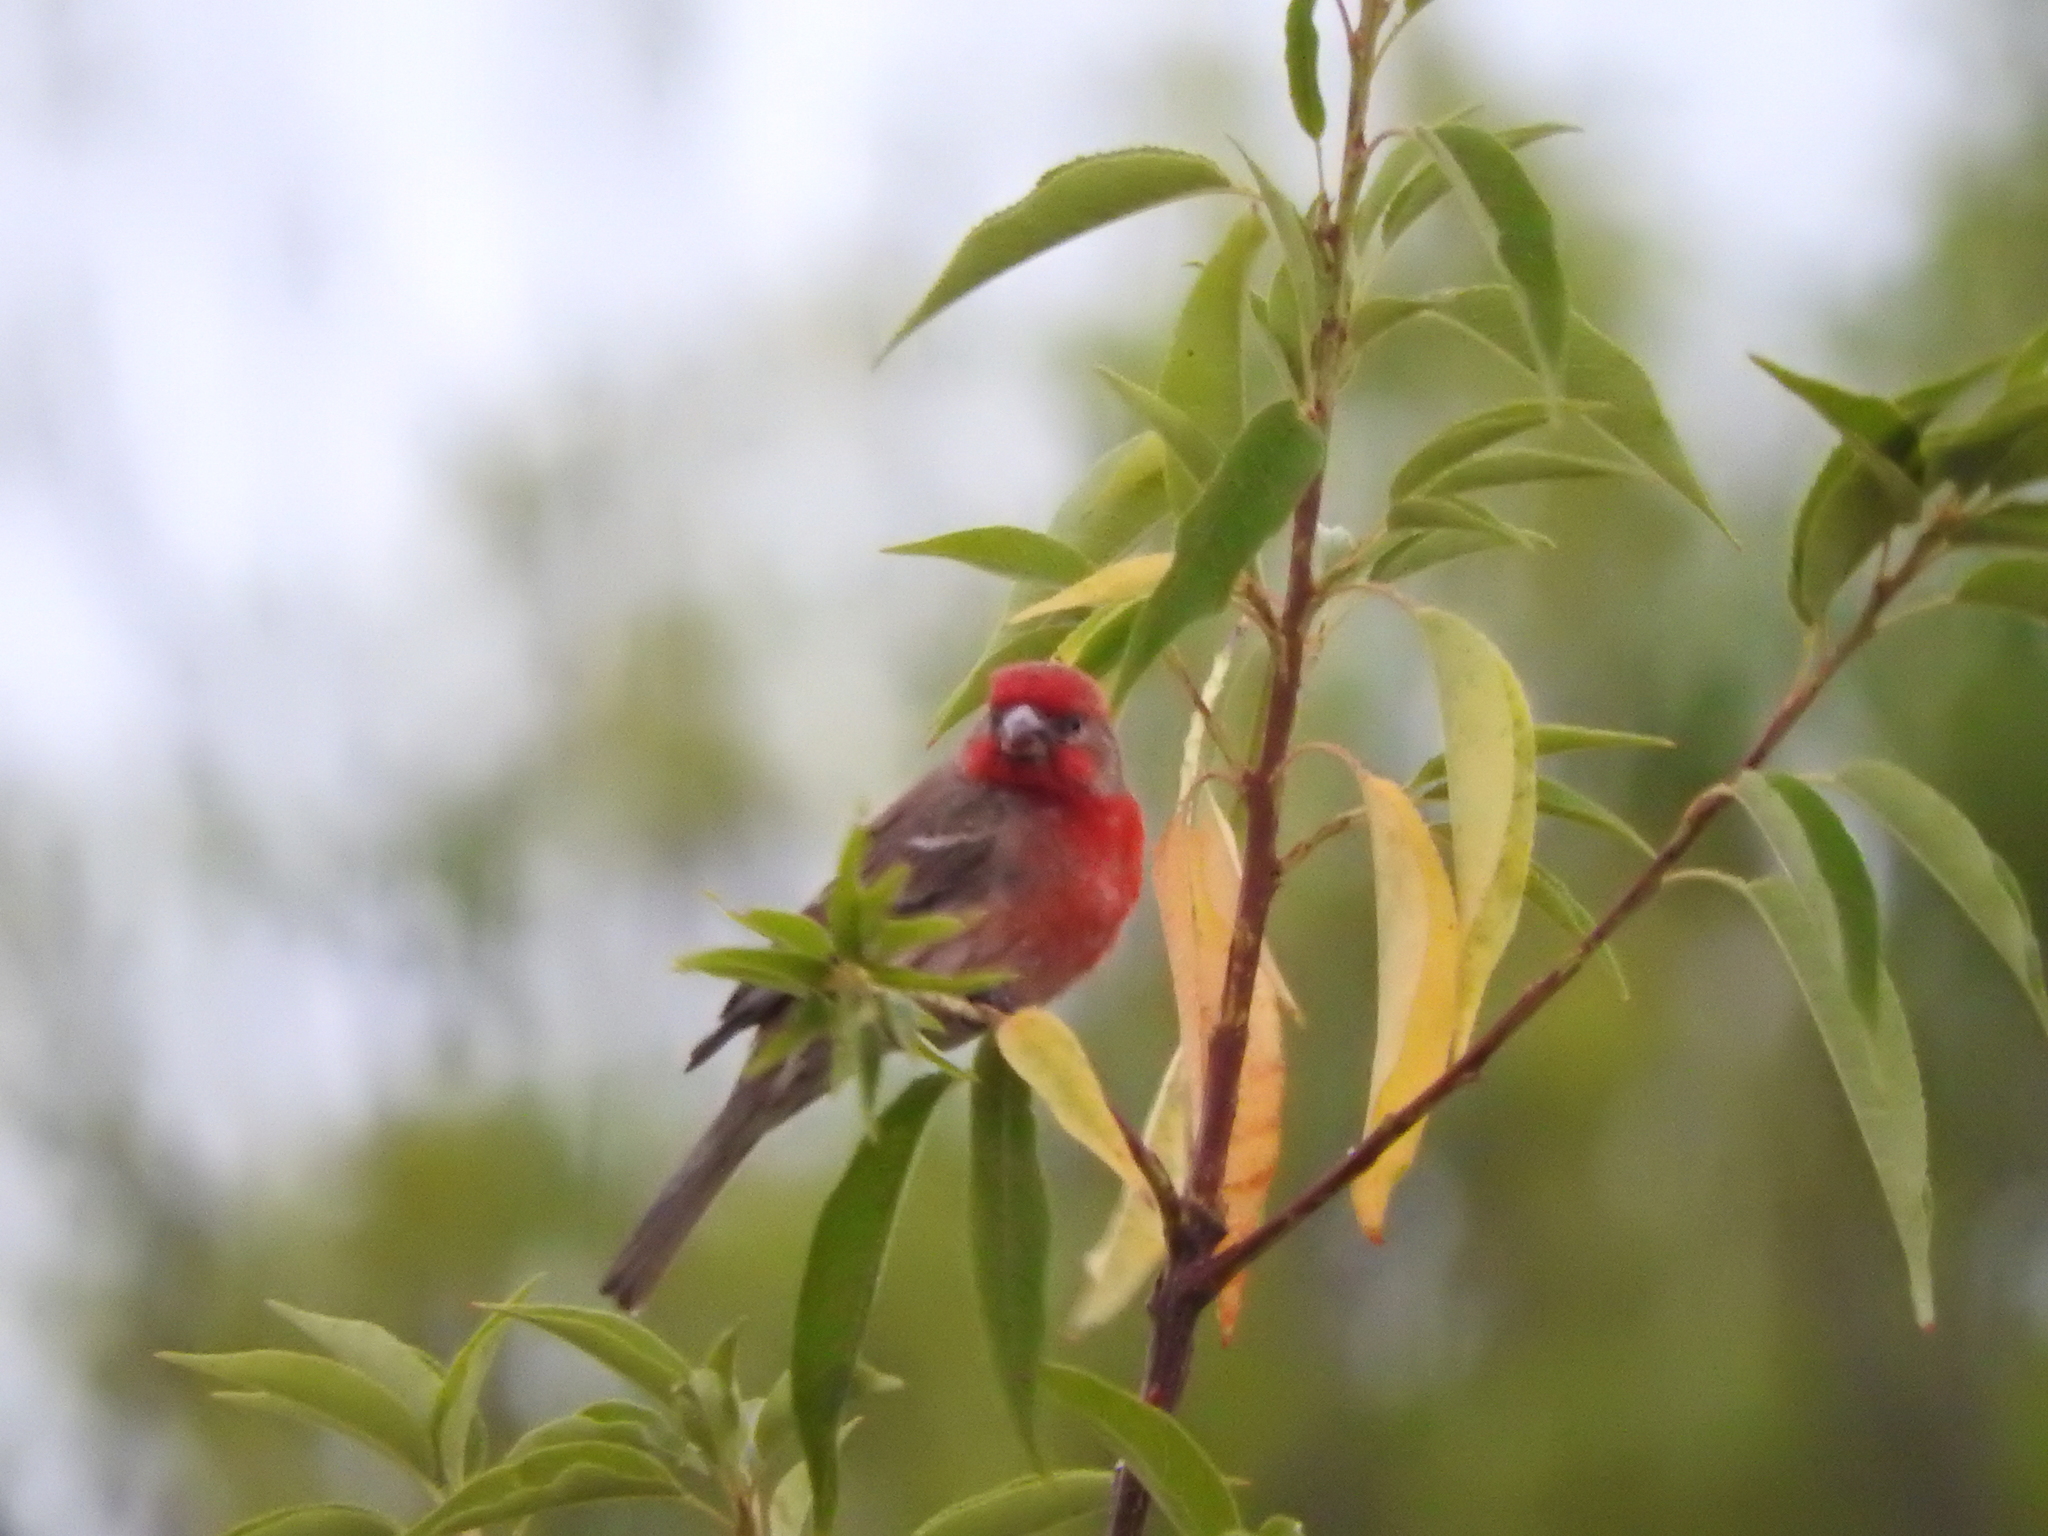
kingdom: Animalia
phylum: Chordata
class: Aves
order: Passeriformes
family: Fringillidae
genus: Haemorhous
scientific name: Haemorhous mexicanus
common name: House finch
